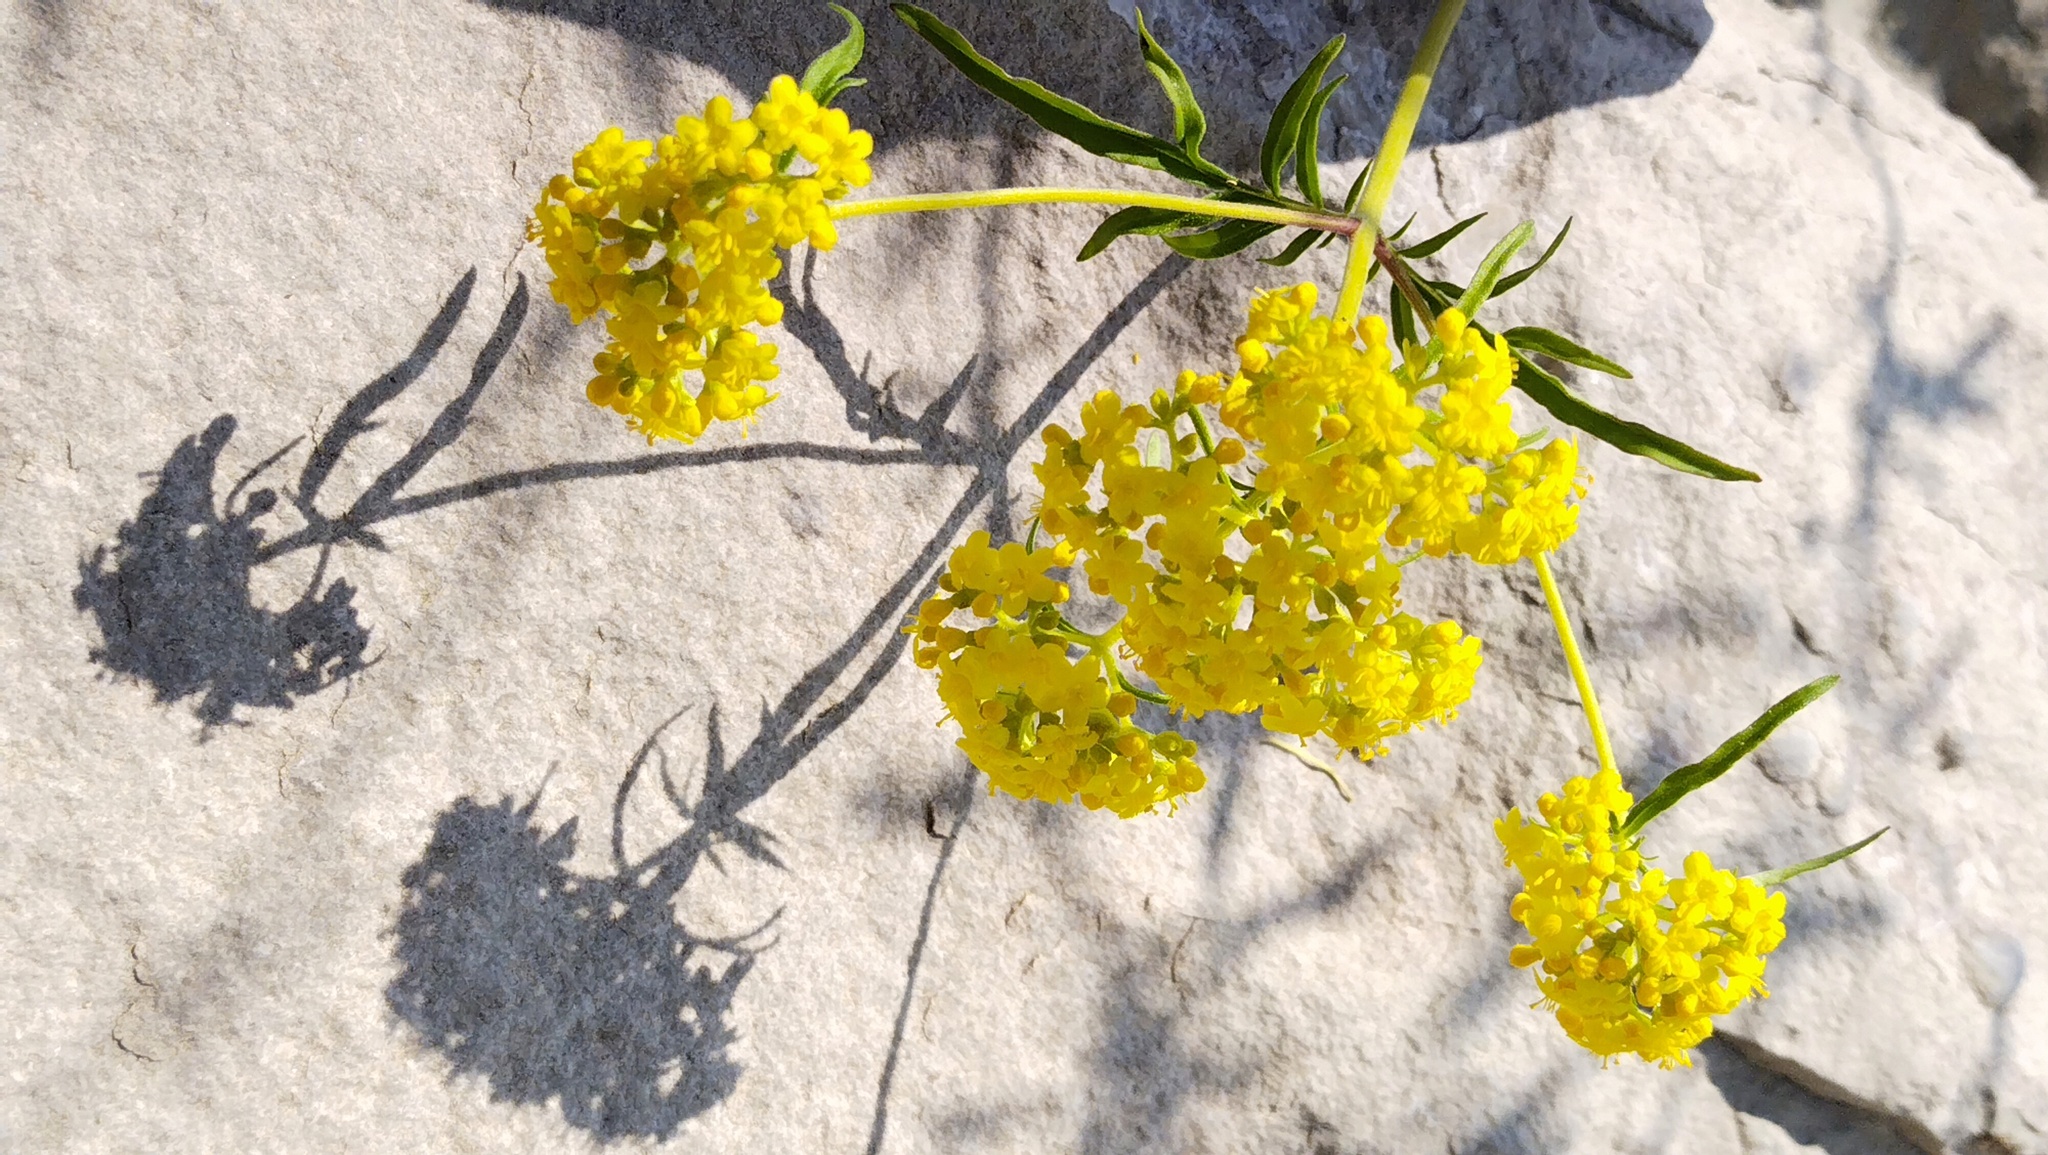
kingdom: Plantae
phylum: Tracheophyta
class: Magnoliopsida
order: Dipsacales
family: Caprifoliaceae
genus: Patrinia
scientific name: Patrinia rupestris
